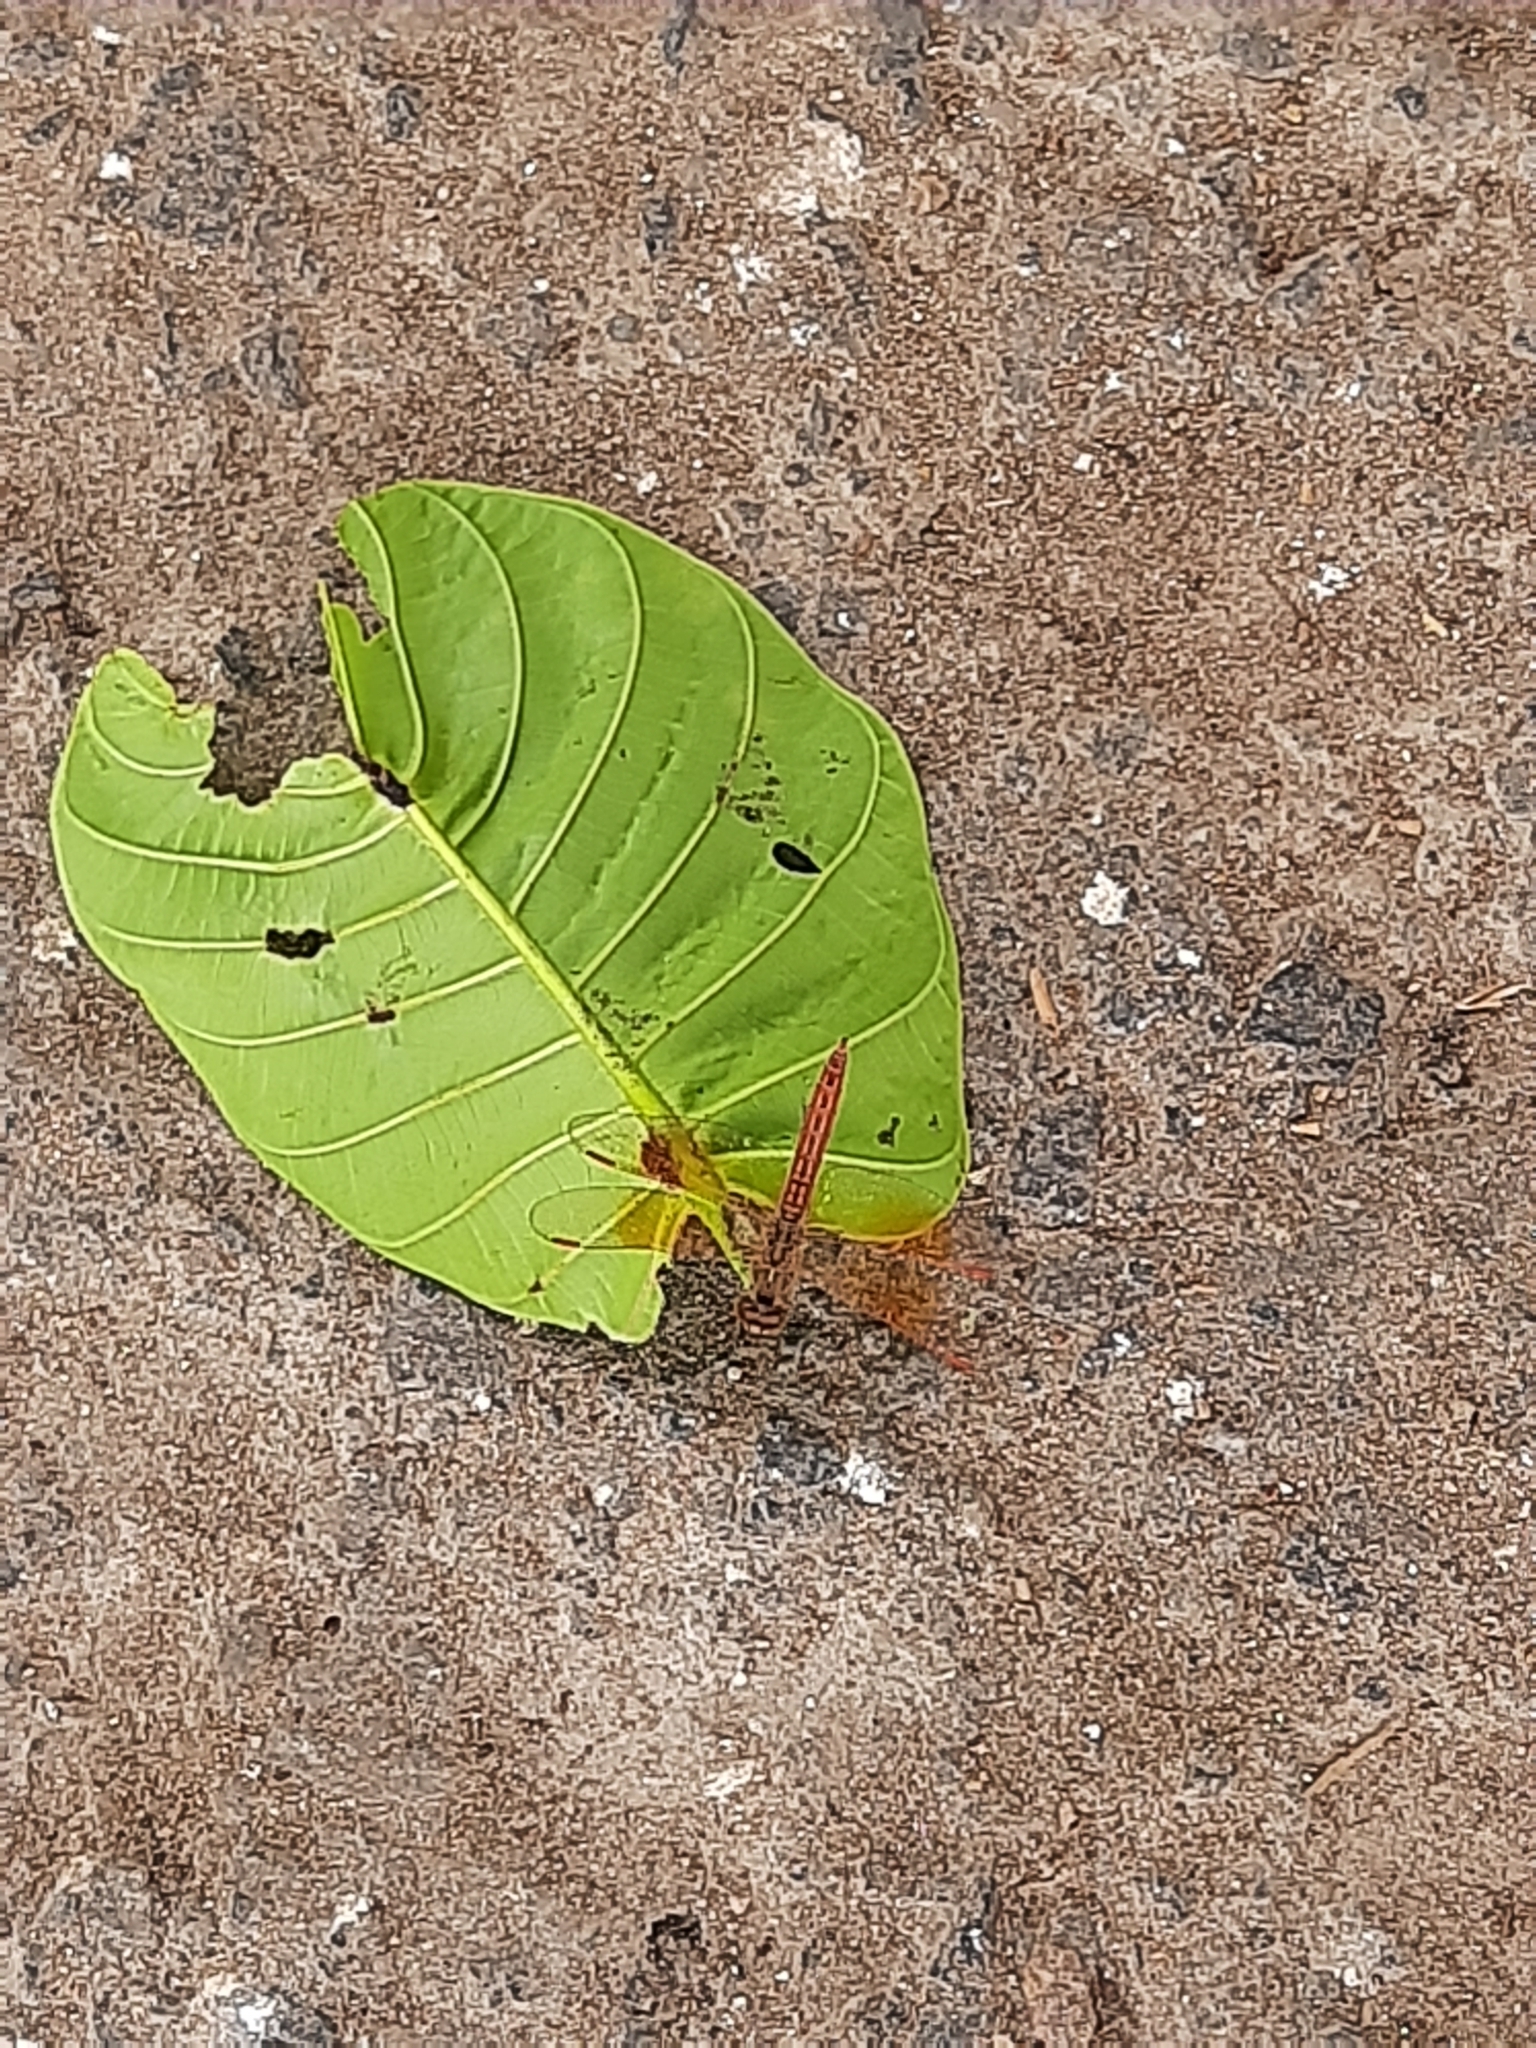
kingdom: Animalia
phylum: Arthropoda
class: Insecta
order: Odonata
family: Libellulidae
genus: Brachythemis
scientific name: Brachythemis contaminata
